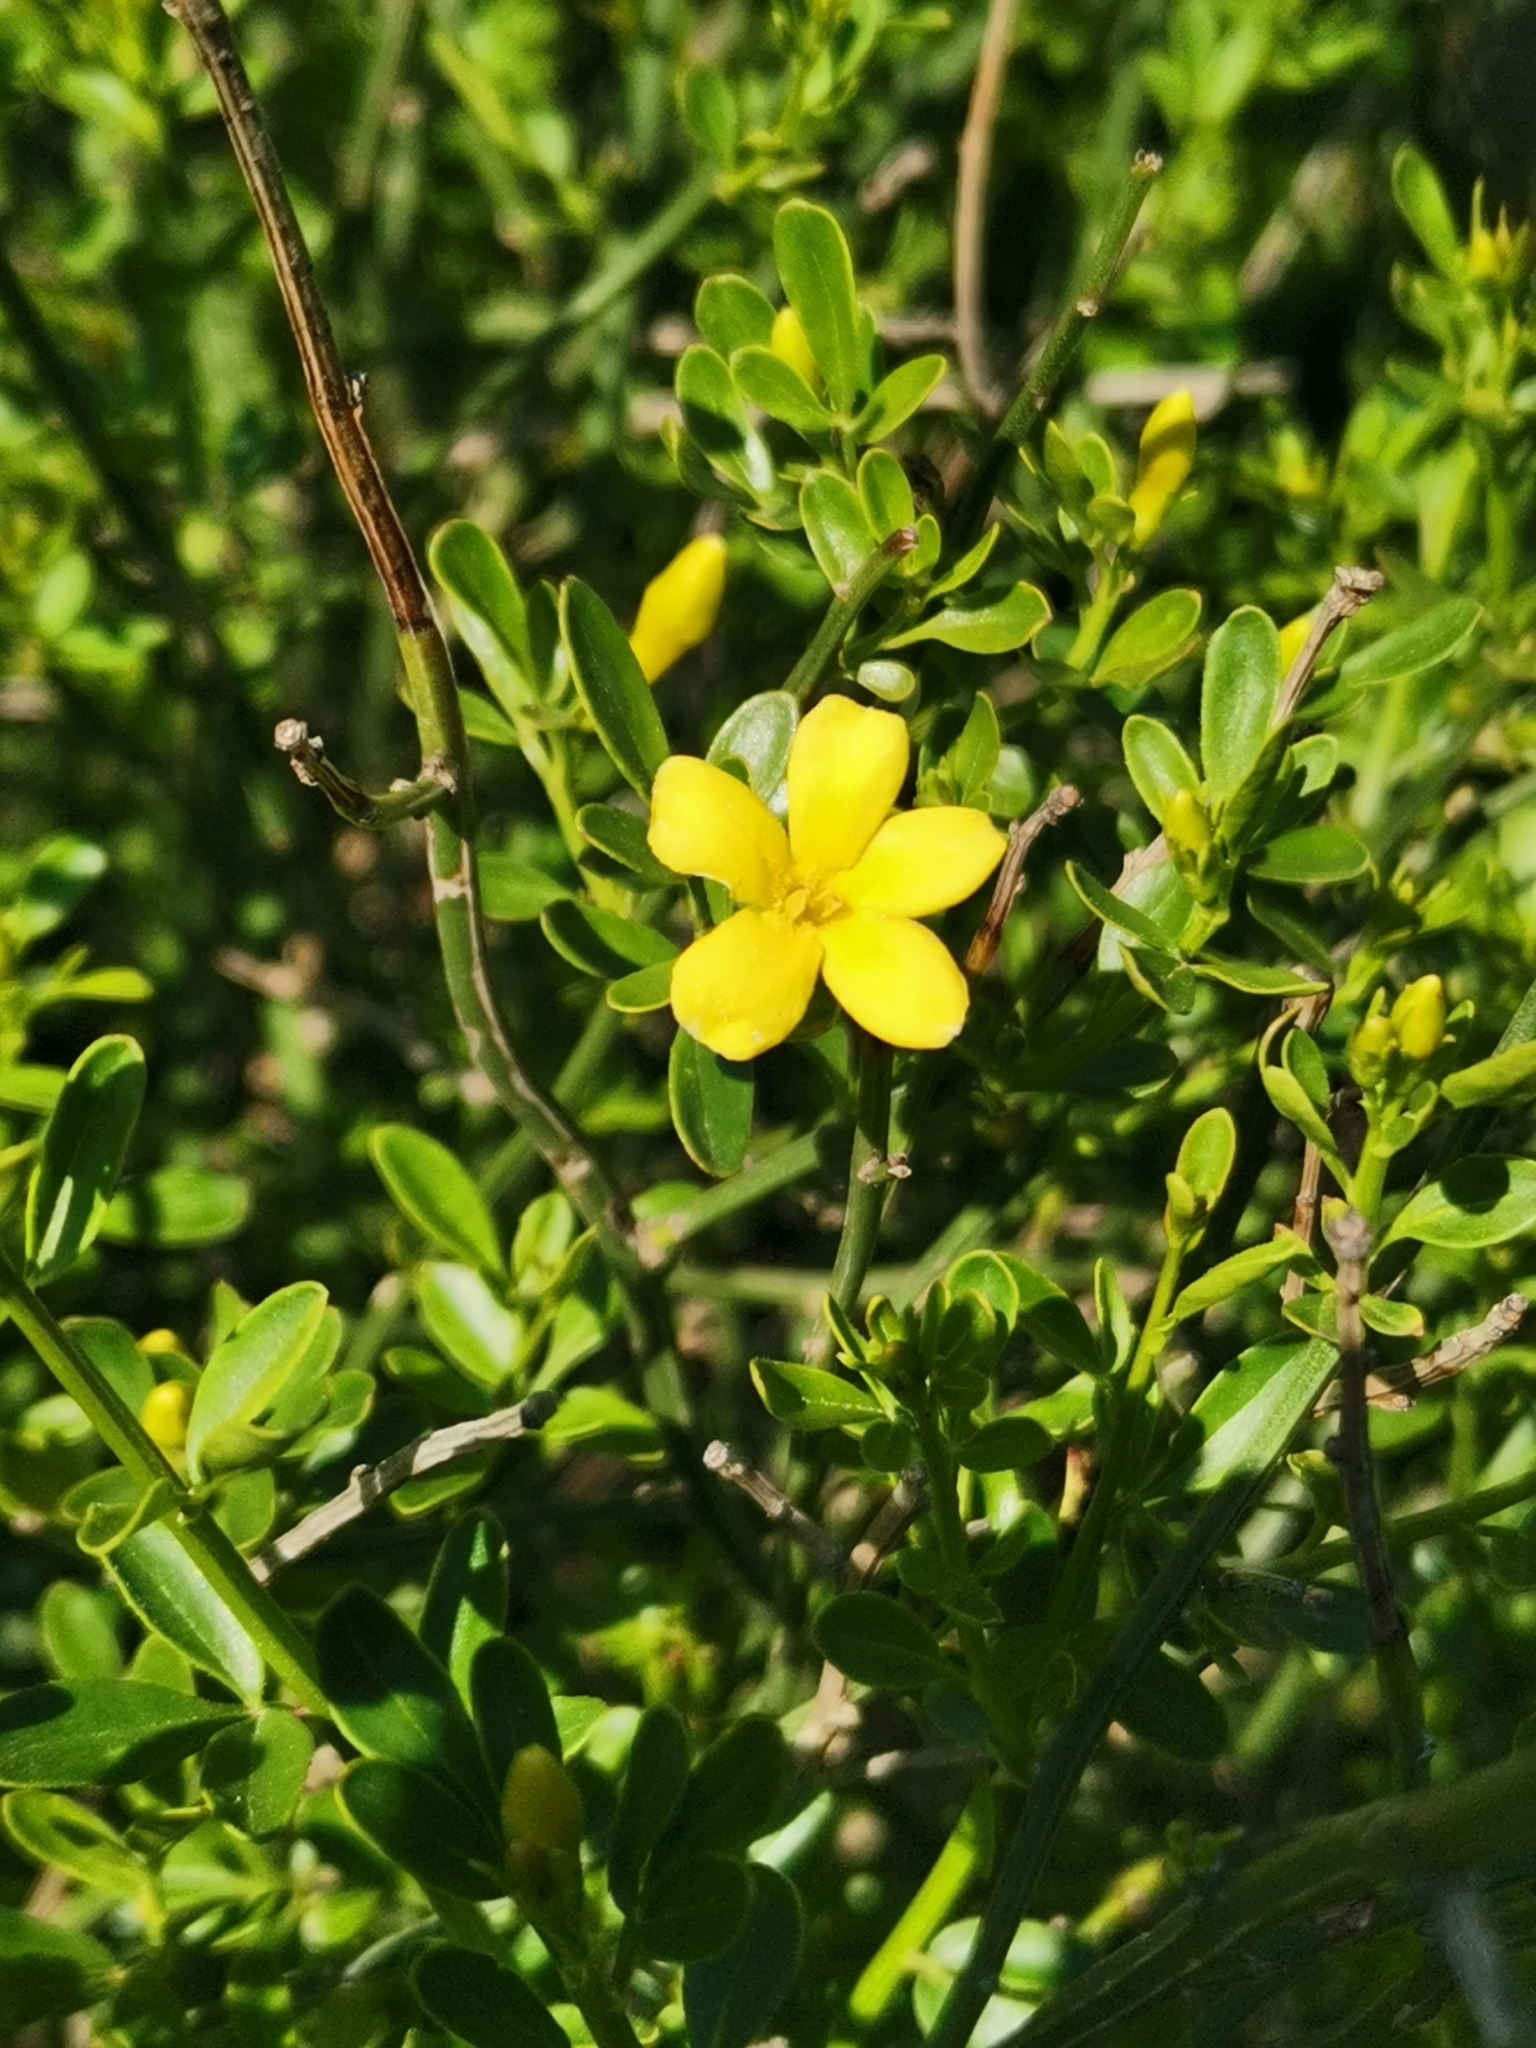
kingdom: Plantae
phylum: Tracheophyta
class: Magnoliopsida
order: Lamiales
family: Oleaceae
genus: Chrysojasminum
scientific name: Chrysojasminum fruticans
